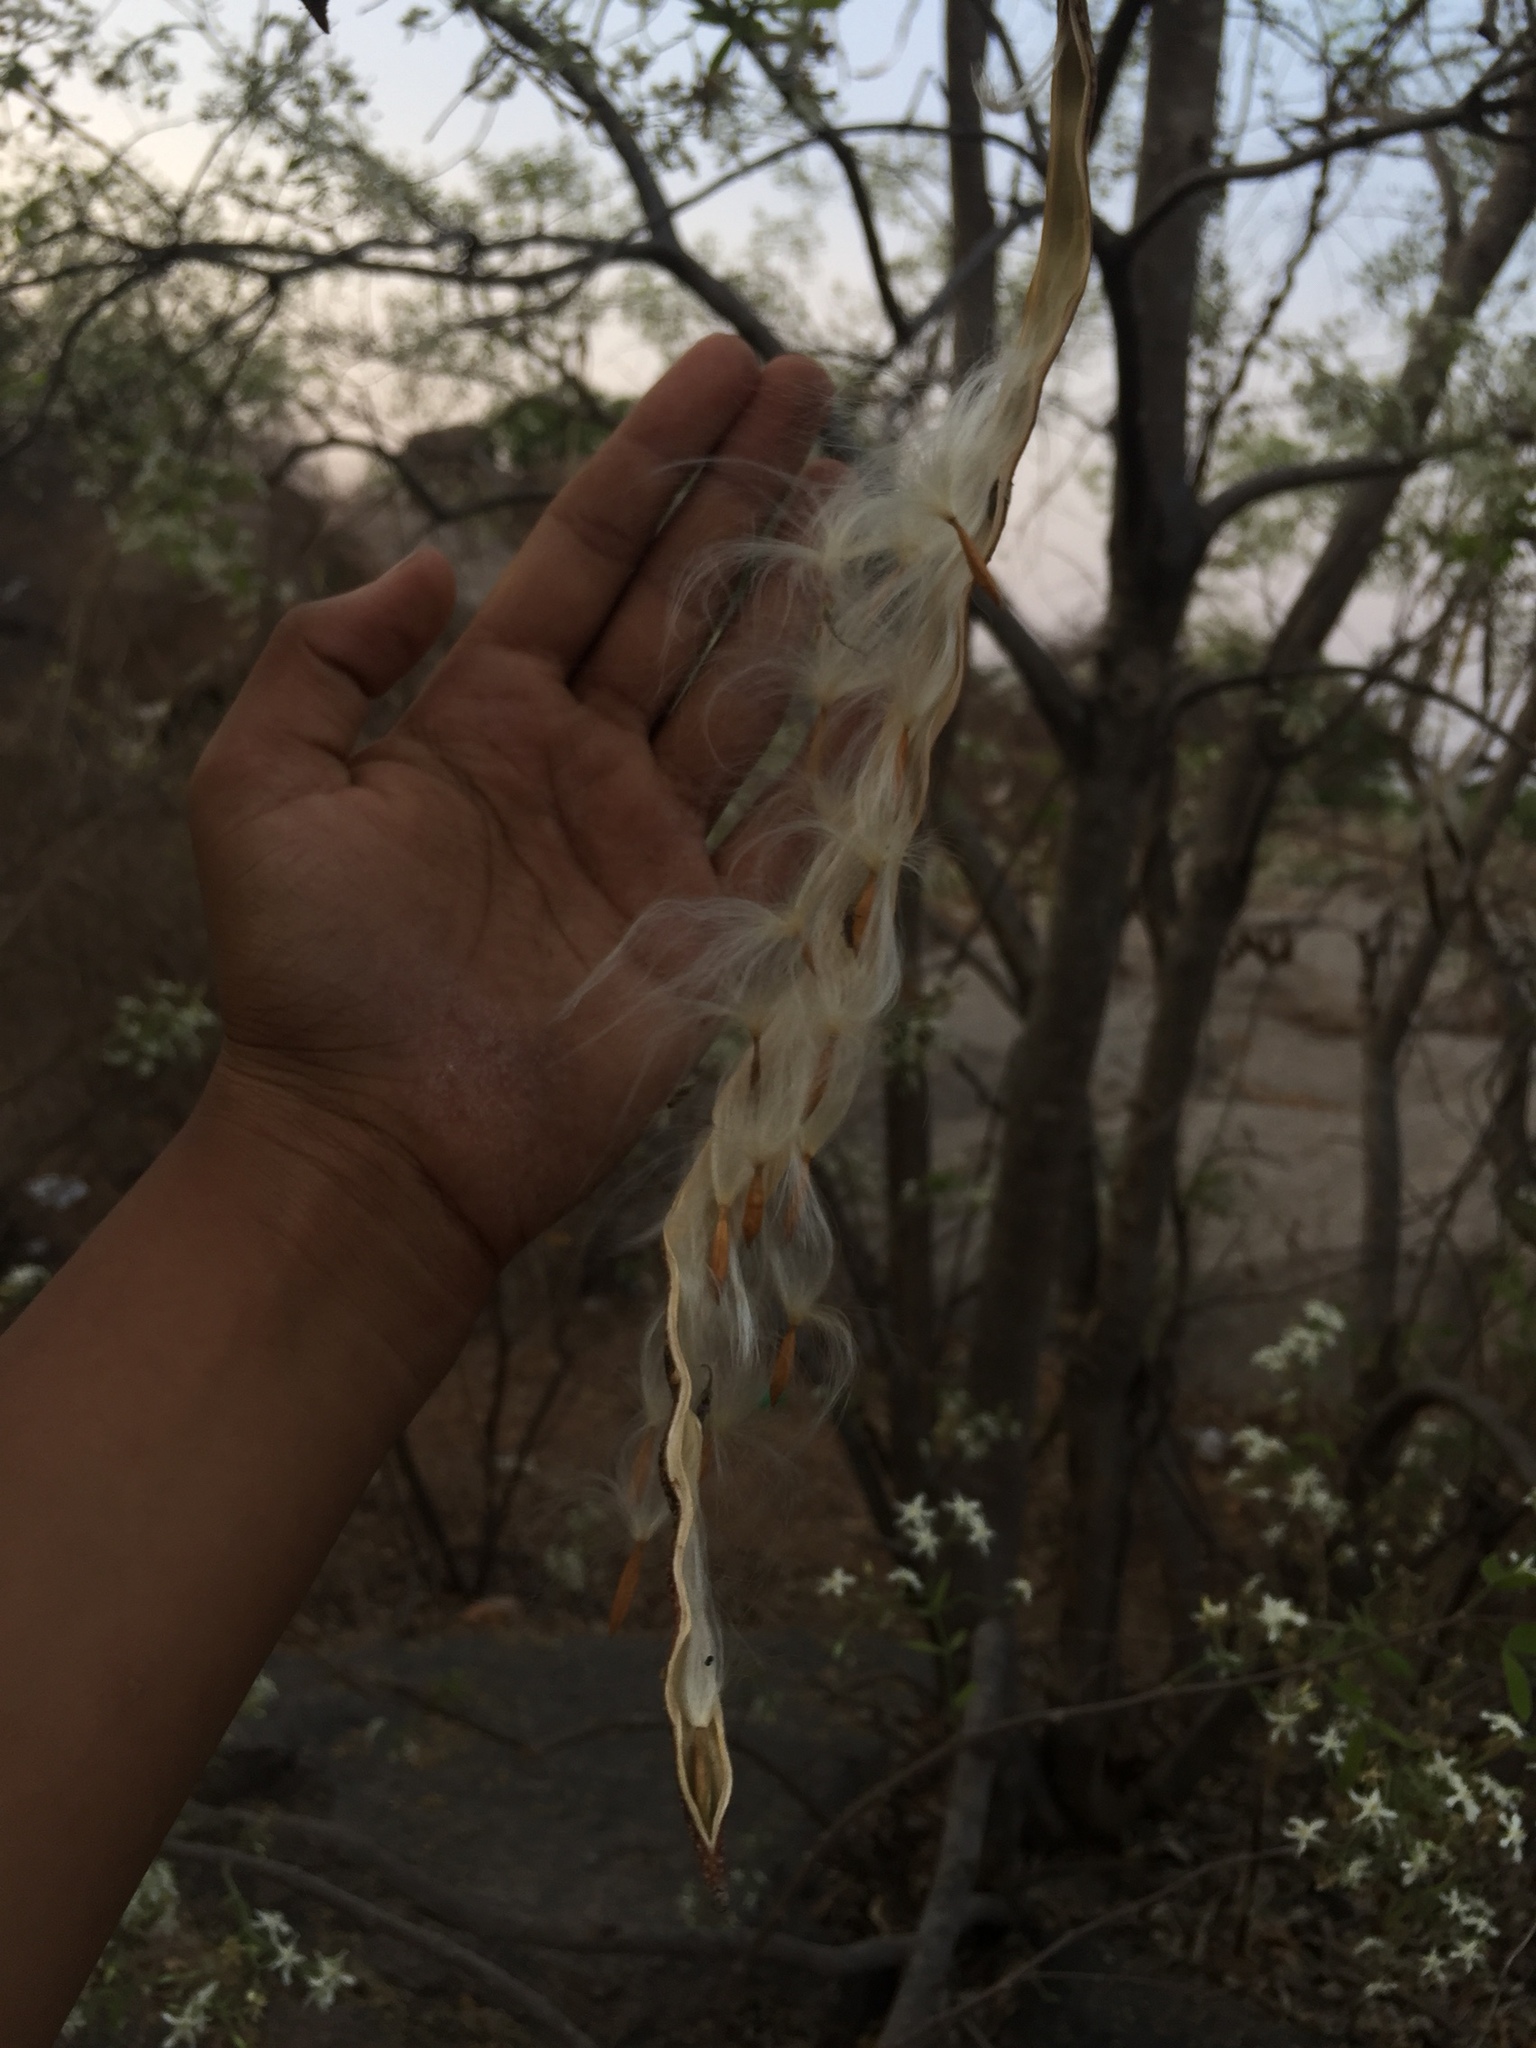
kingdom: Plantae
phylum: Tracheophyta
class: Magnoliopsida
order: Gentianales
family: Apocynaceae
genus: Wrightia
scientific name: Wrightia tinctoria
